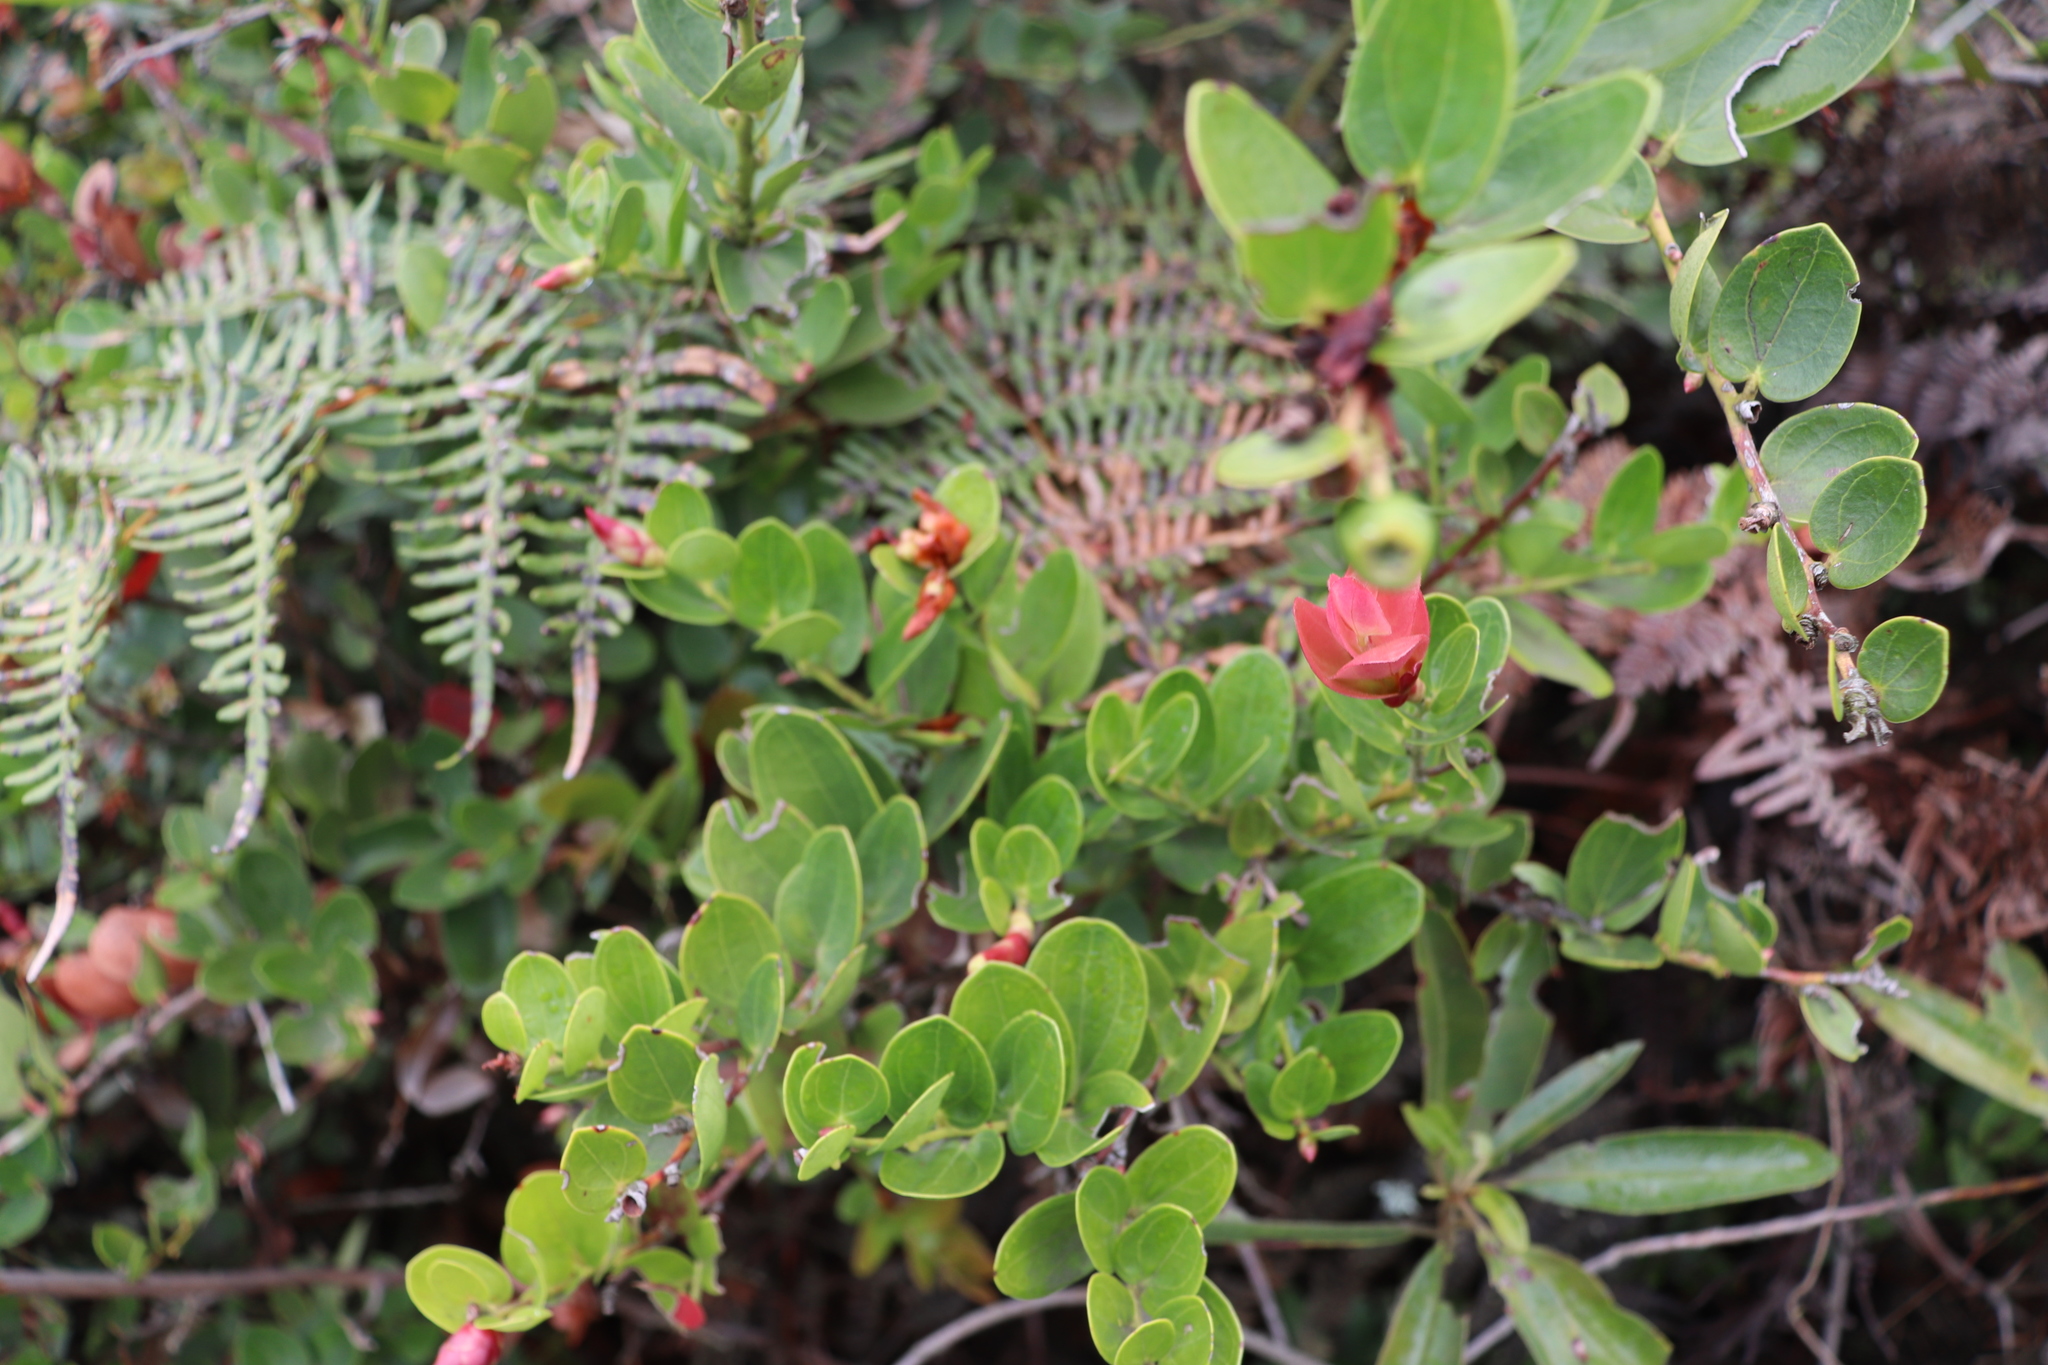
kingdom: Plantae
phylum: Tracheophyta
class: Magnoliopsida
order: Ericales
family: Ericaceae
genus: Cavendishia
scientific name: Cavendishia bracteata
